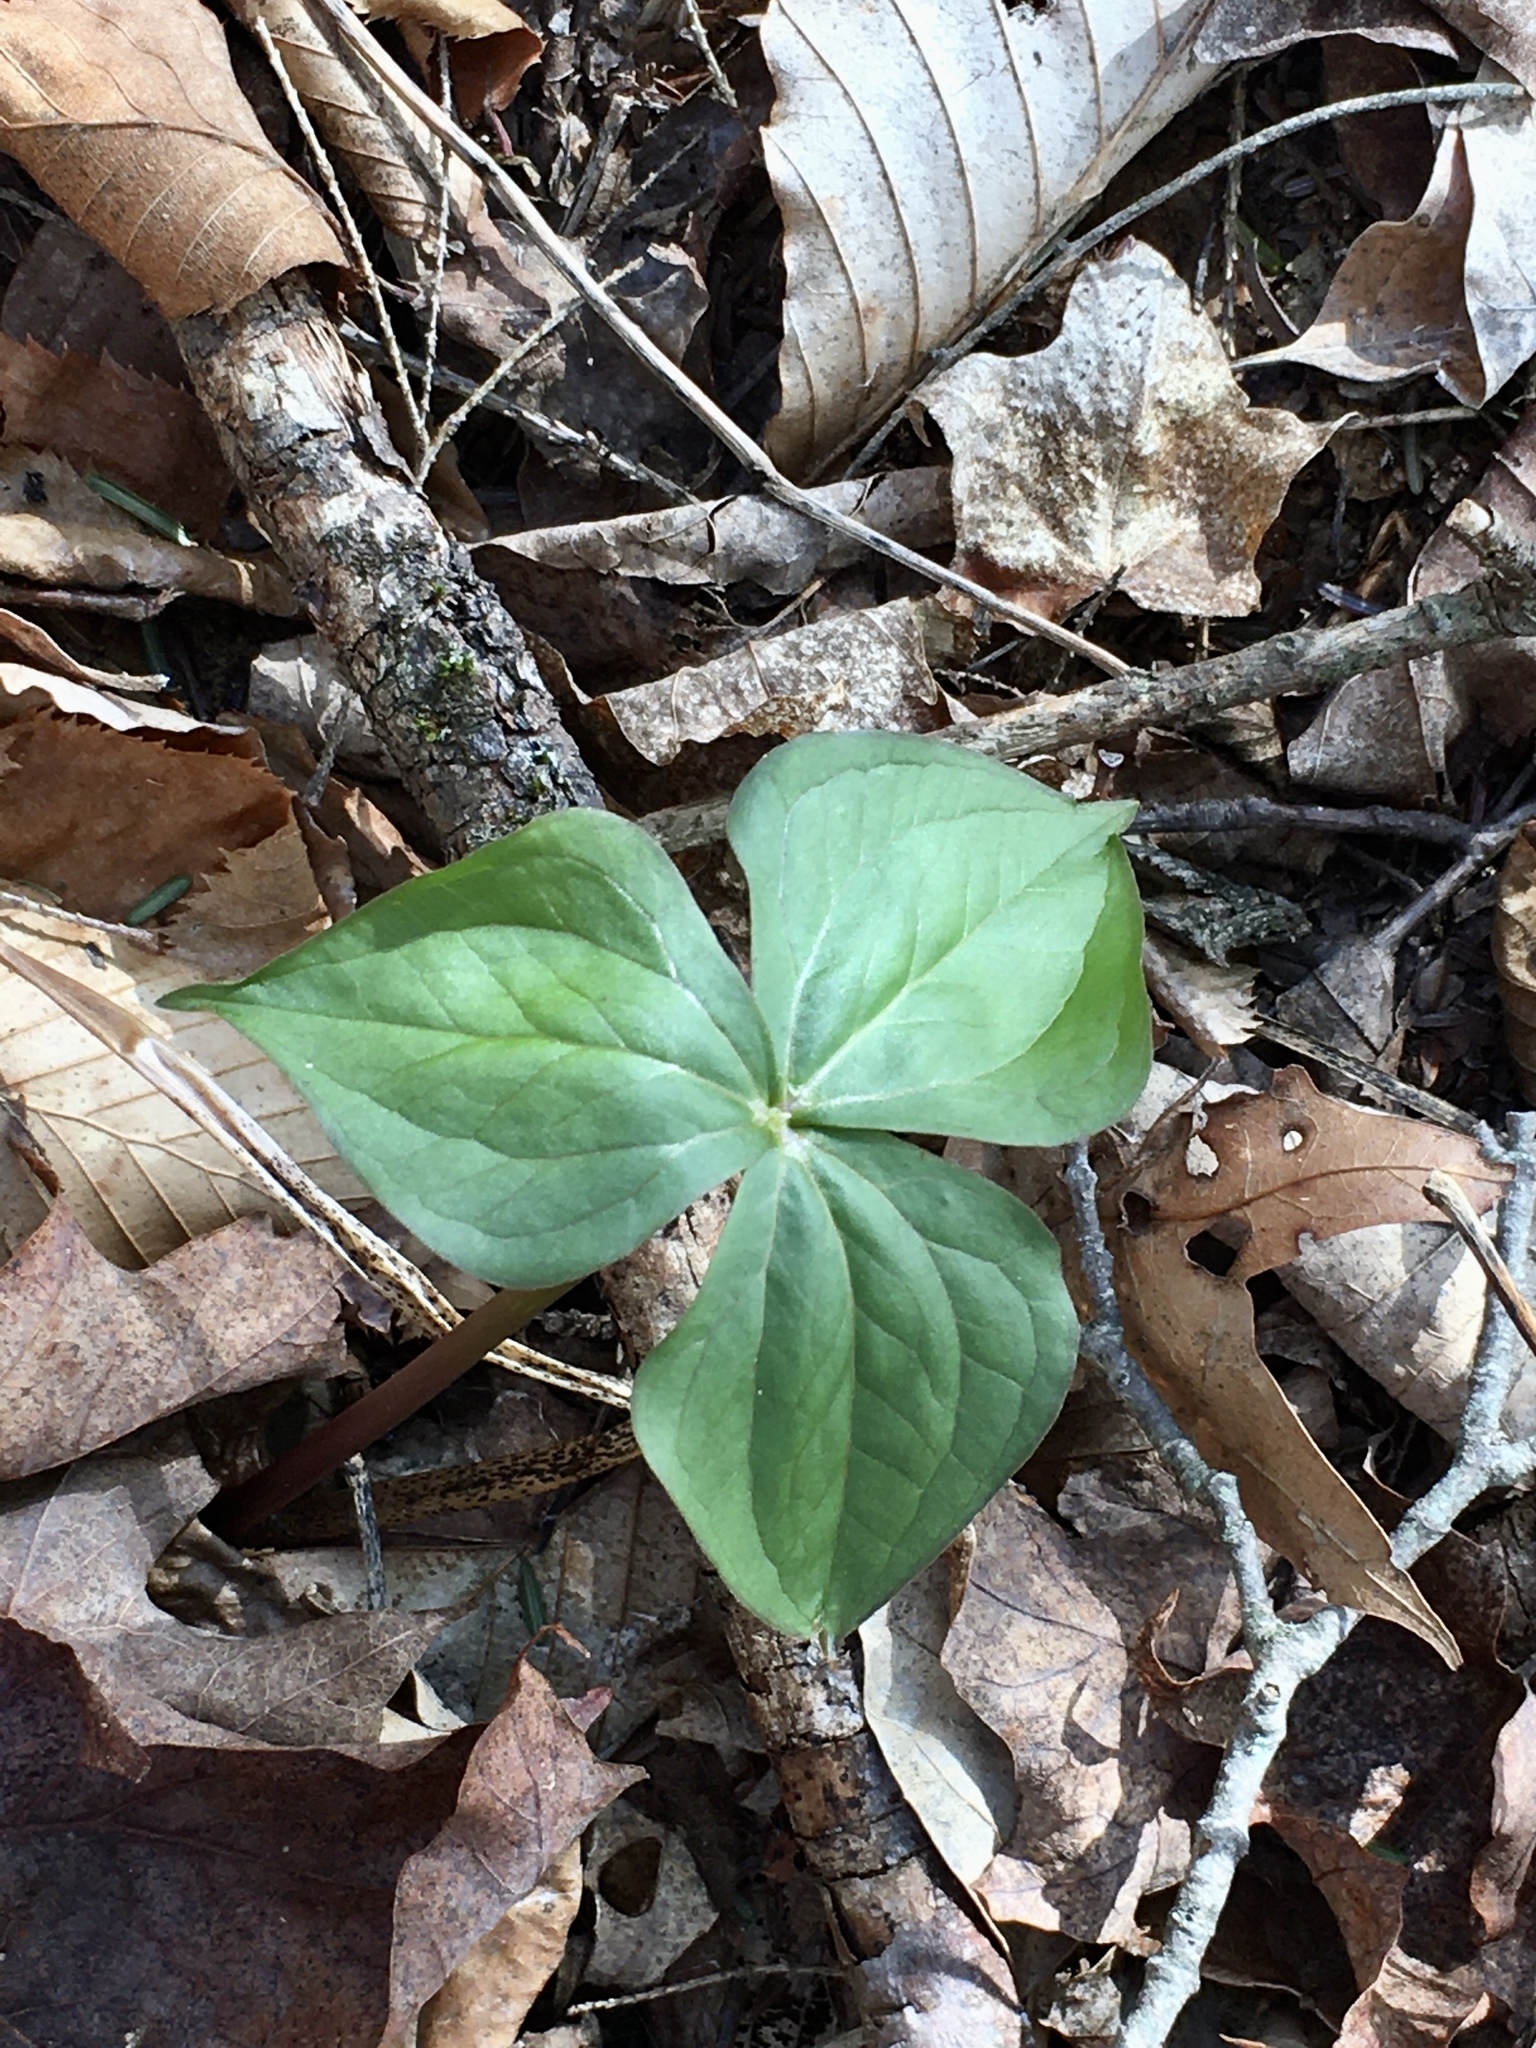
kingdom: Plantae
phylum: Tracheophyta
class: Liliopsida
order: Liliales
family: Melanthiaceae
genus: Trillium
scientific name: Trillium erectum
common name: Purple trillium
